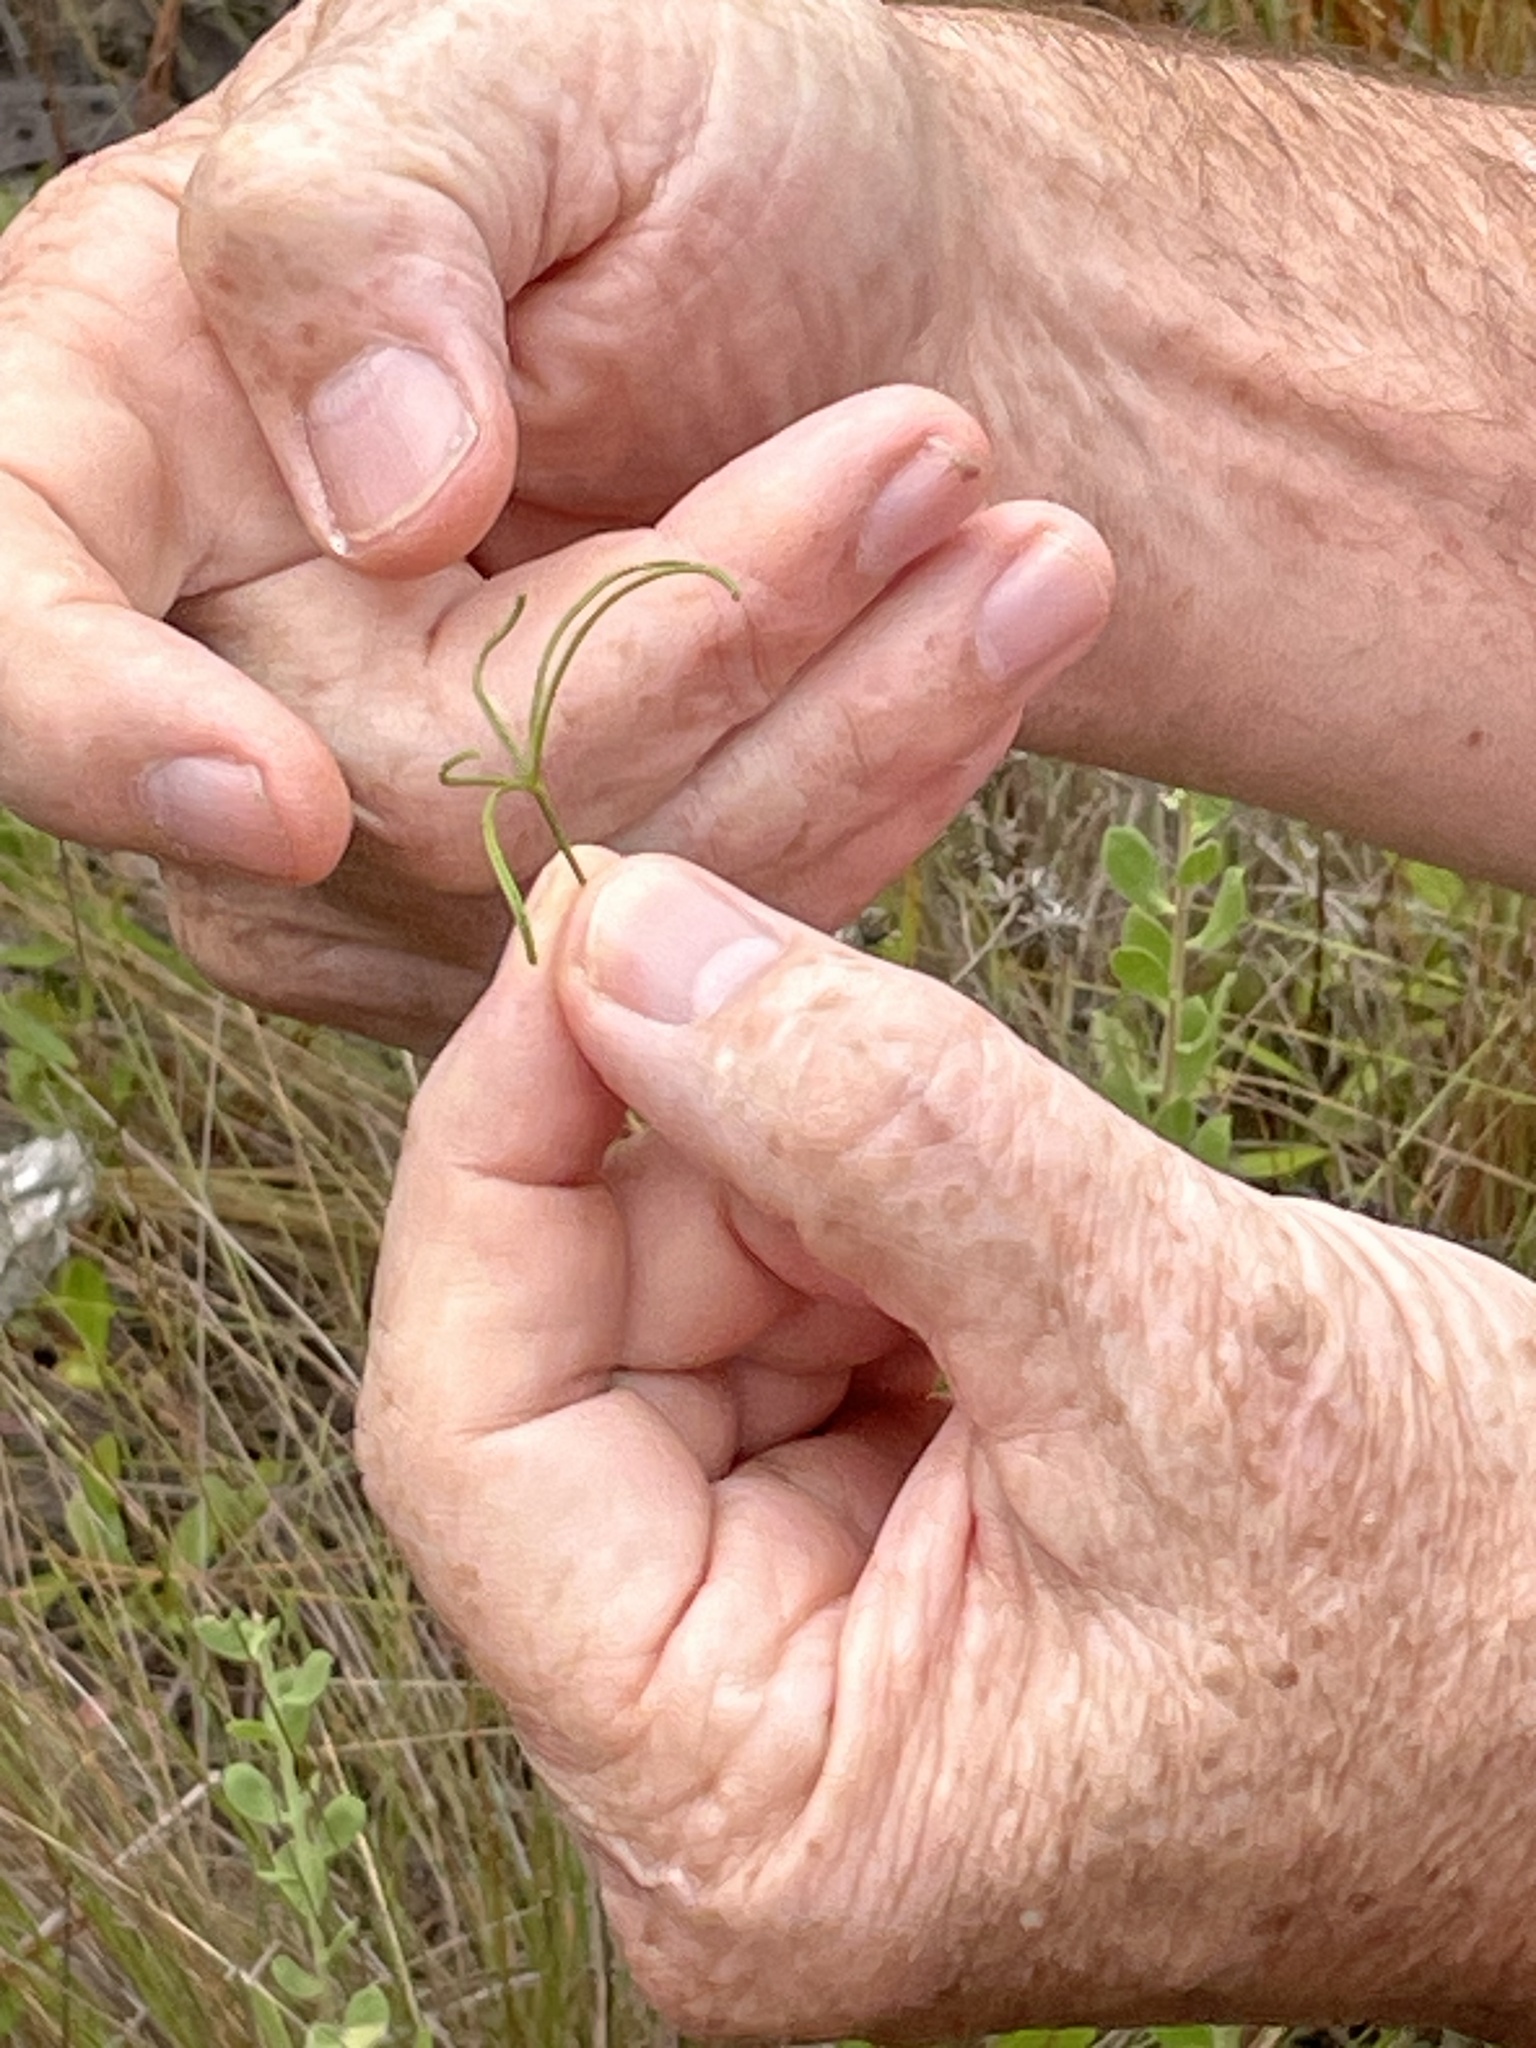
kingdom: Plantae
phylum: Tracheophyta
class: Magnoliopsida
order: Fabales
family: Fabaceae
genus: Orbexilum
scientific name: Orbexilum lupinellus
